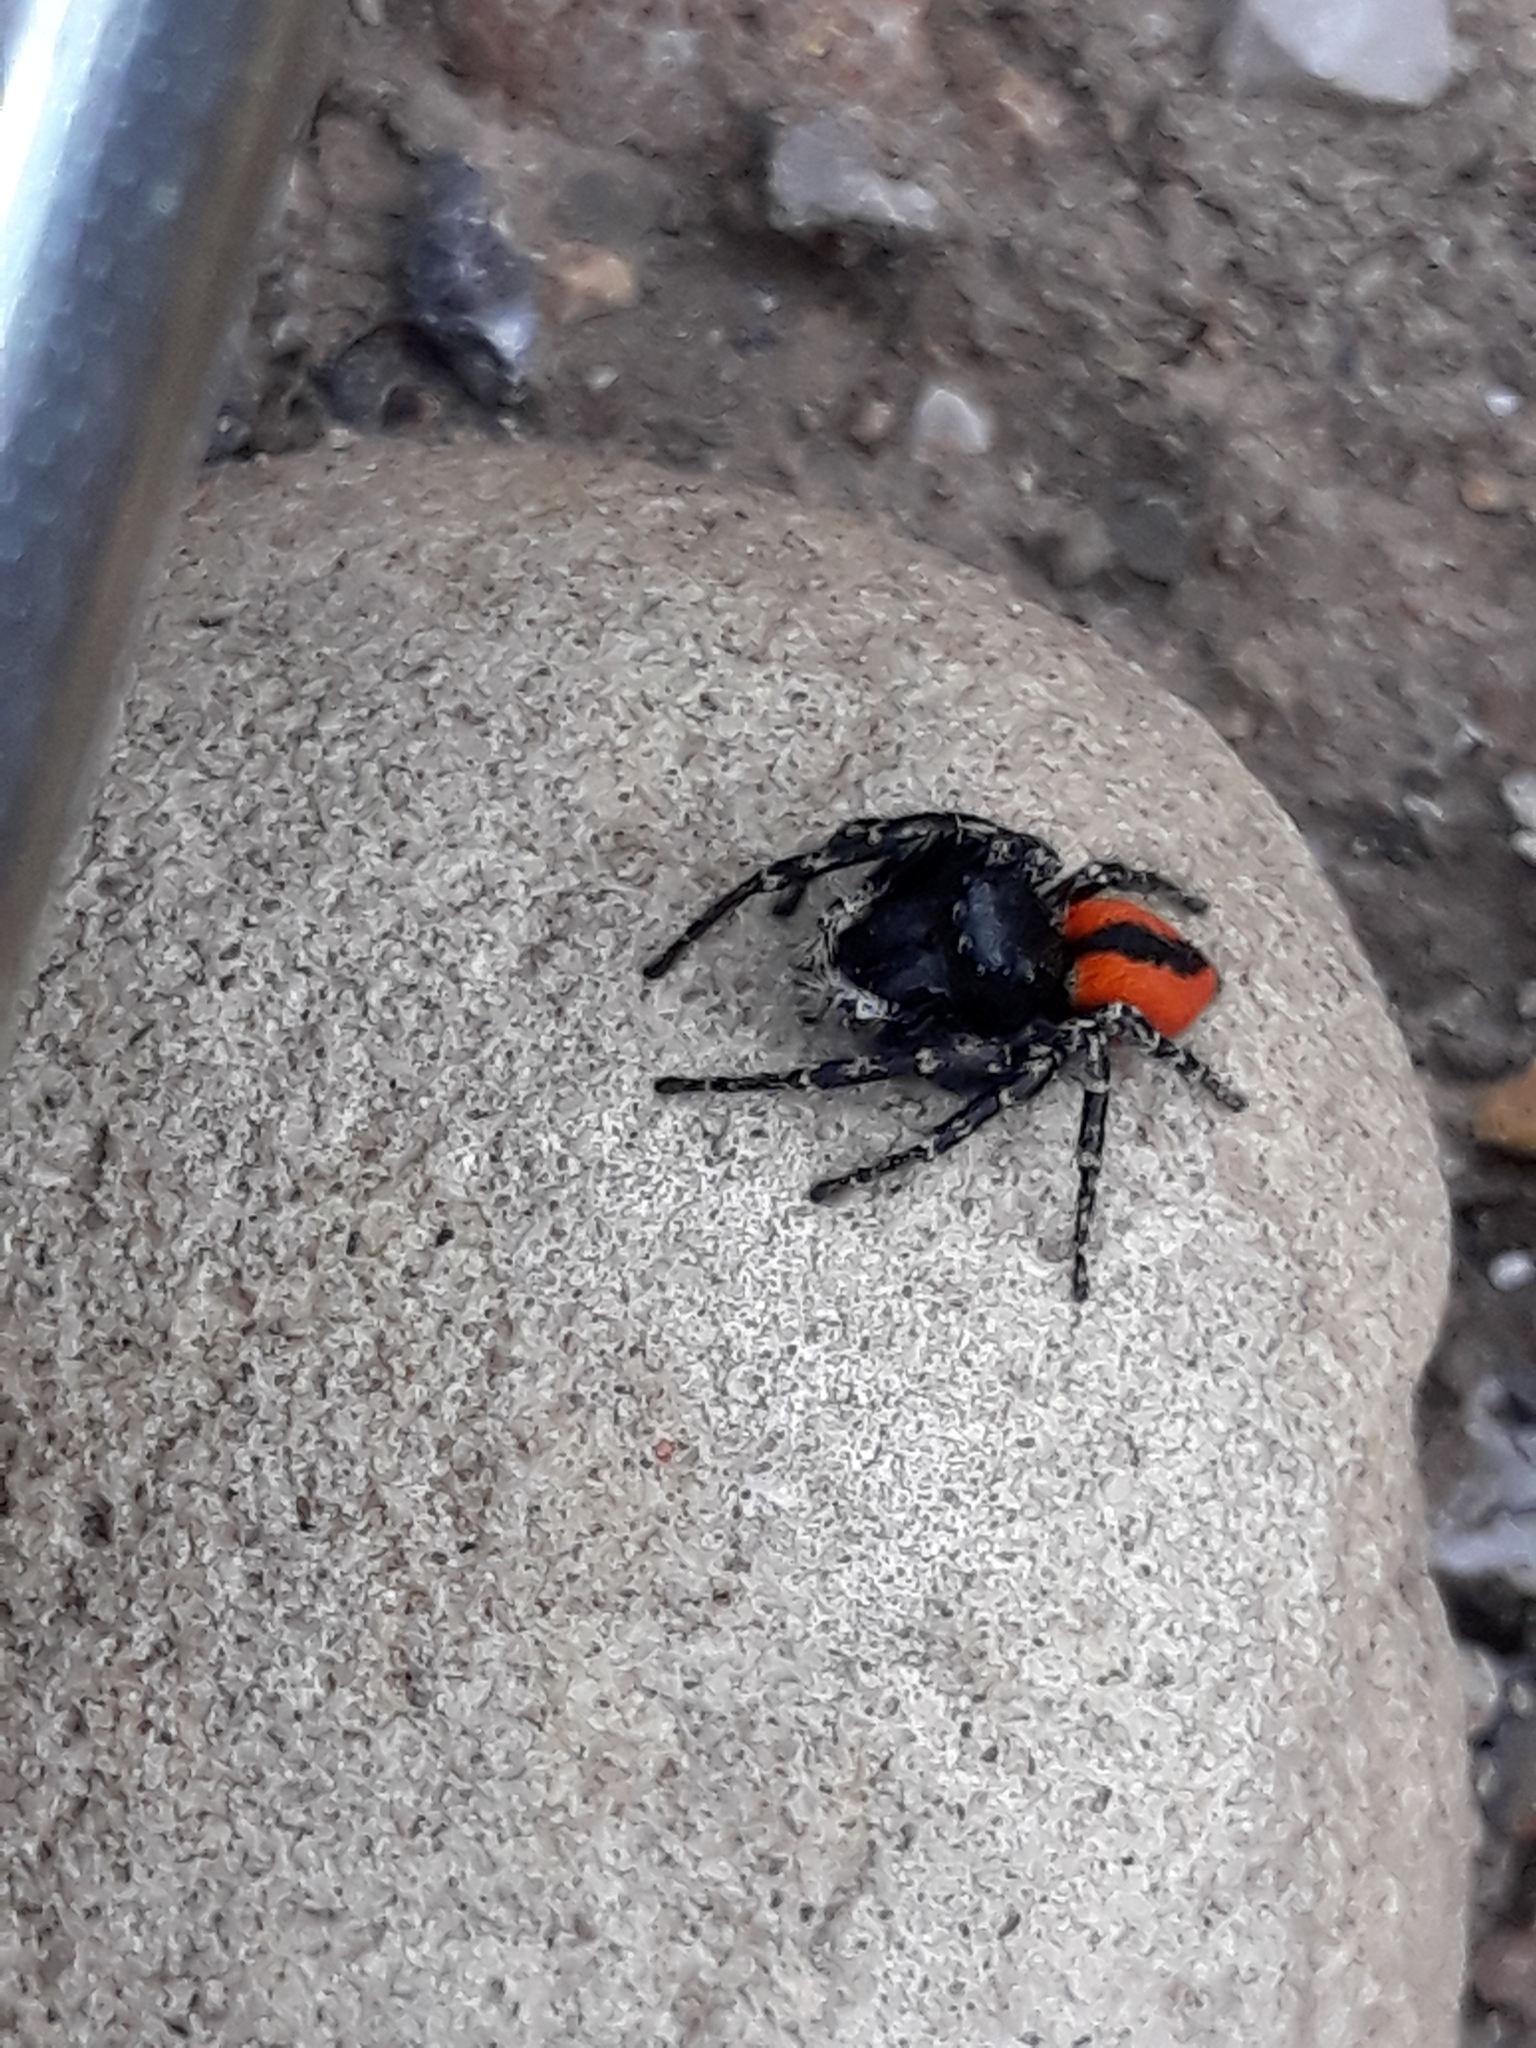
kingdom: Animalia
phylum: Arthropoda
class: Arachnida
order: Araneae
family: Salticidae
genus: Philaeus
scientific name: Philaeus chrysops
